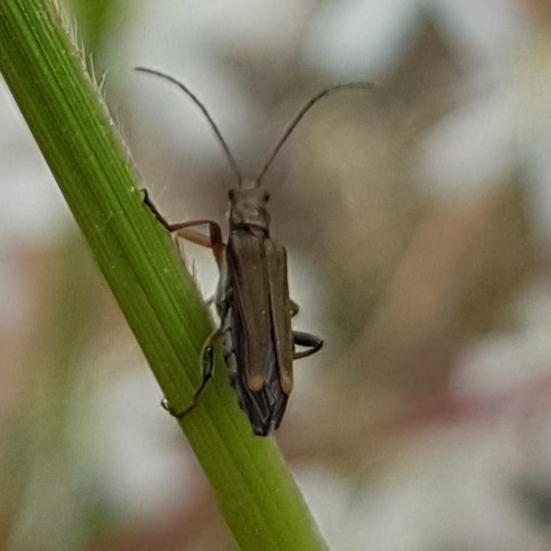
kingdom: Animalia
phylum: Arthropoda
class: Insecta
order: Coleoptera
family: Oedemeridae
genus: Oedemera
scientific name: Oedemera barbara
